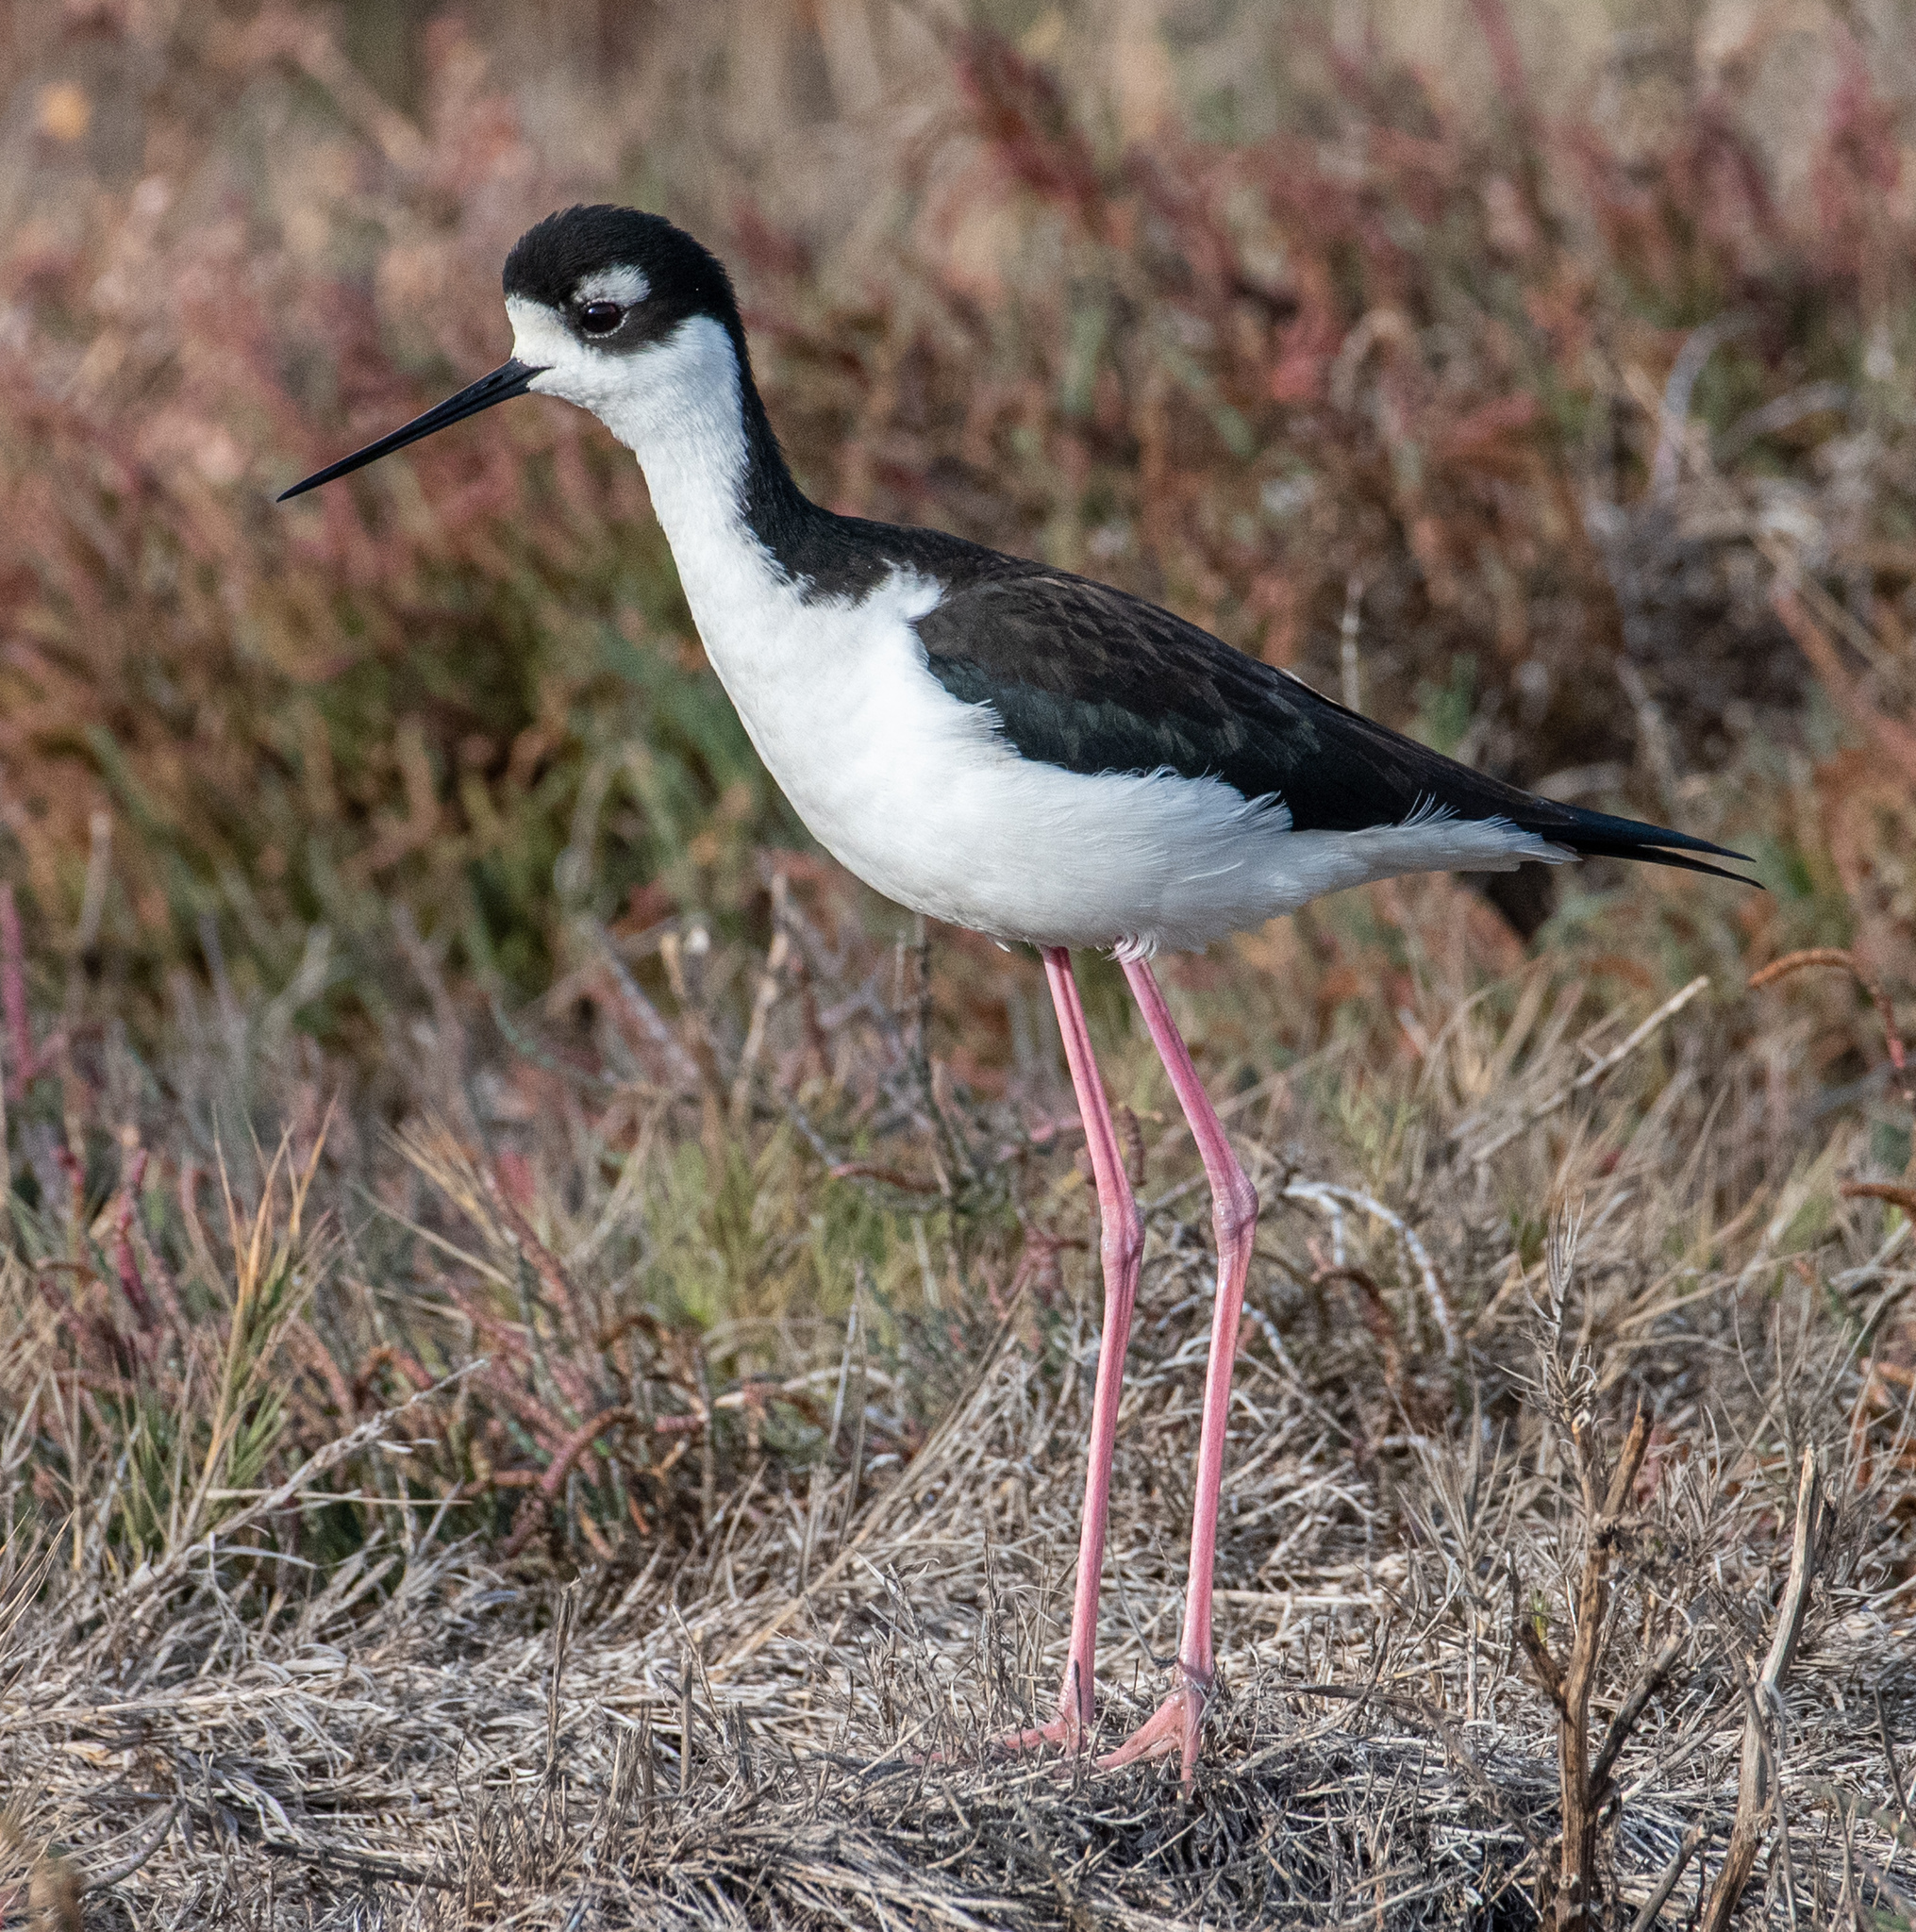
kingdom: Animalia
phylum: Chordata
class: Aves
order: Charadriiformes
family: Recurvirostridae
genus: Himantopus
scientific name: Himantopus mexicanus
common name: Black-necked stilt
